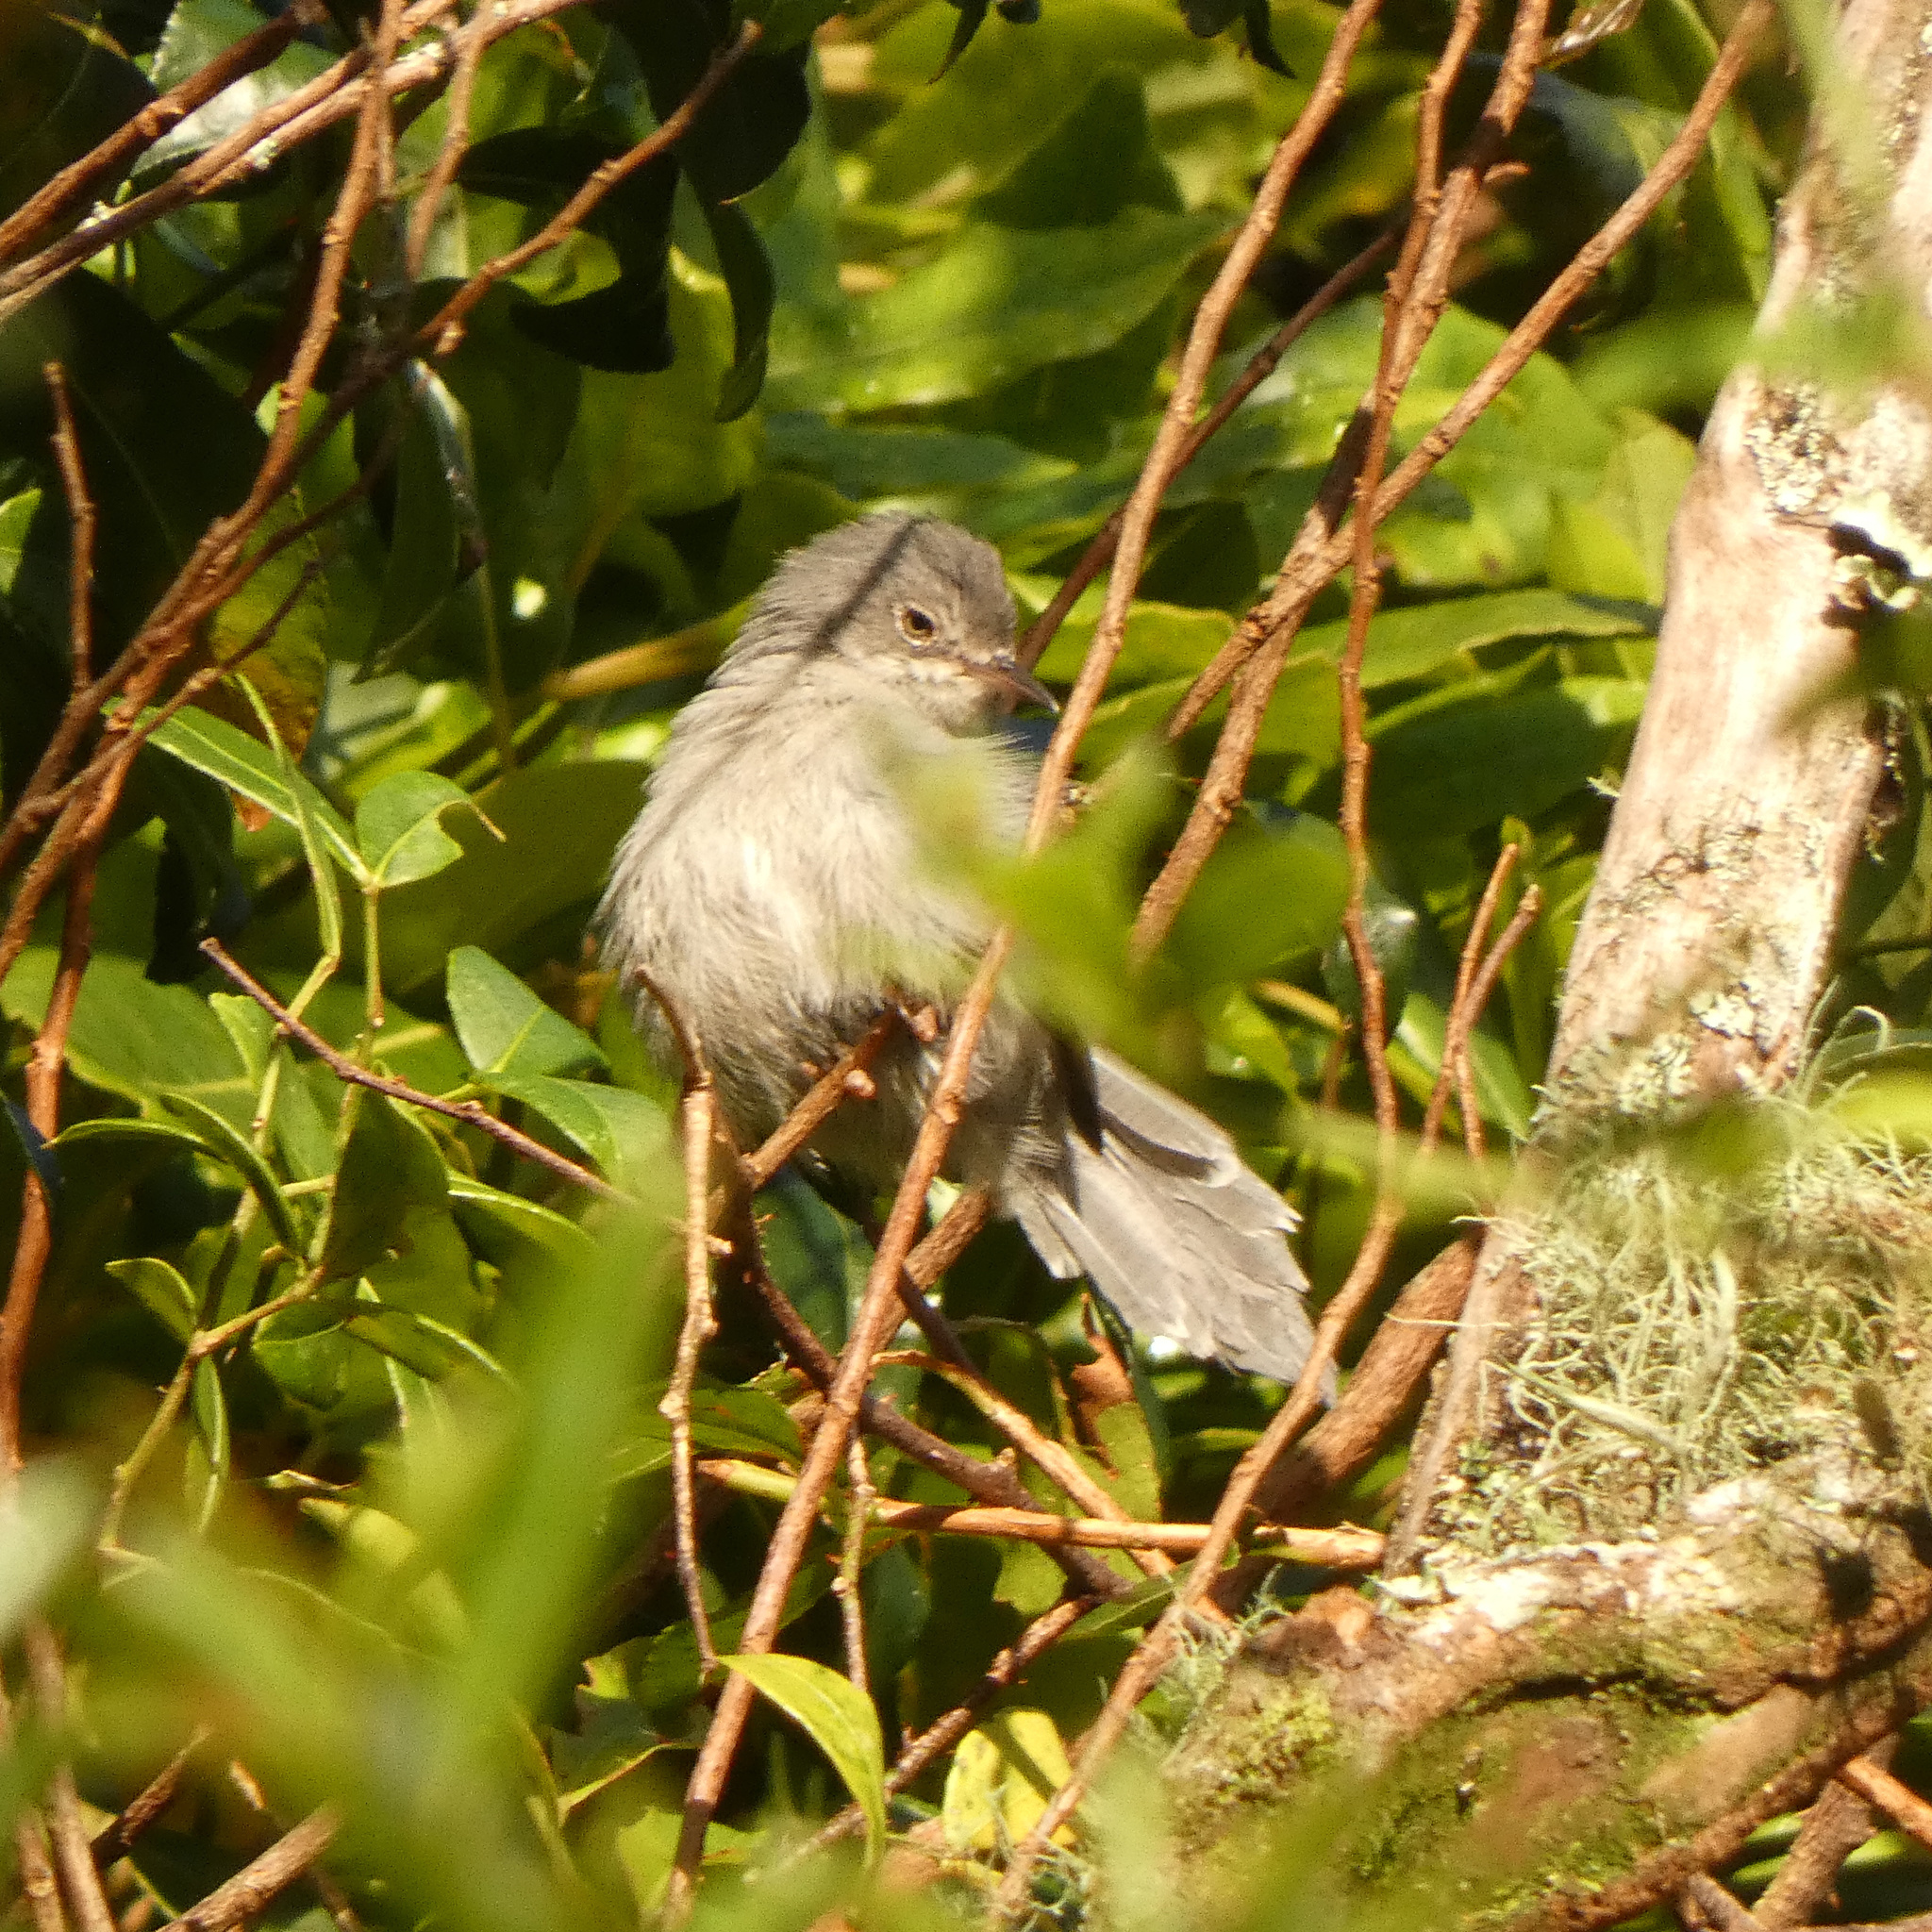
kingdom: Animalia
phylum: Chordata
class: Aves
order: Passeriformes
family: Cisticolidae
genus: Apalis
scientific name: Apalis chirindensis
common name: Chirinda apalis
